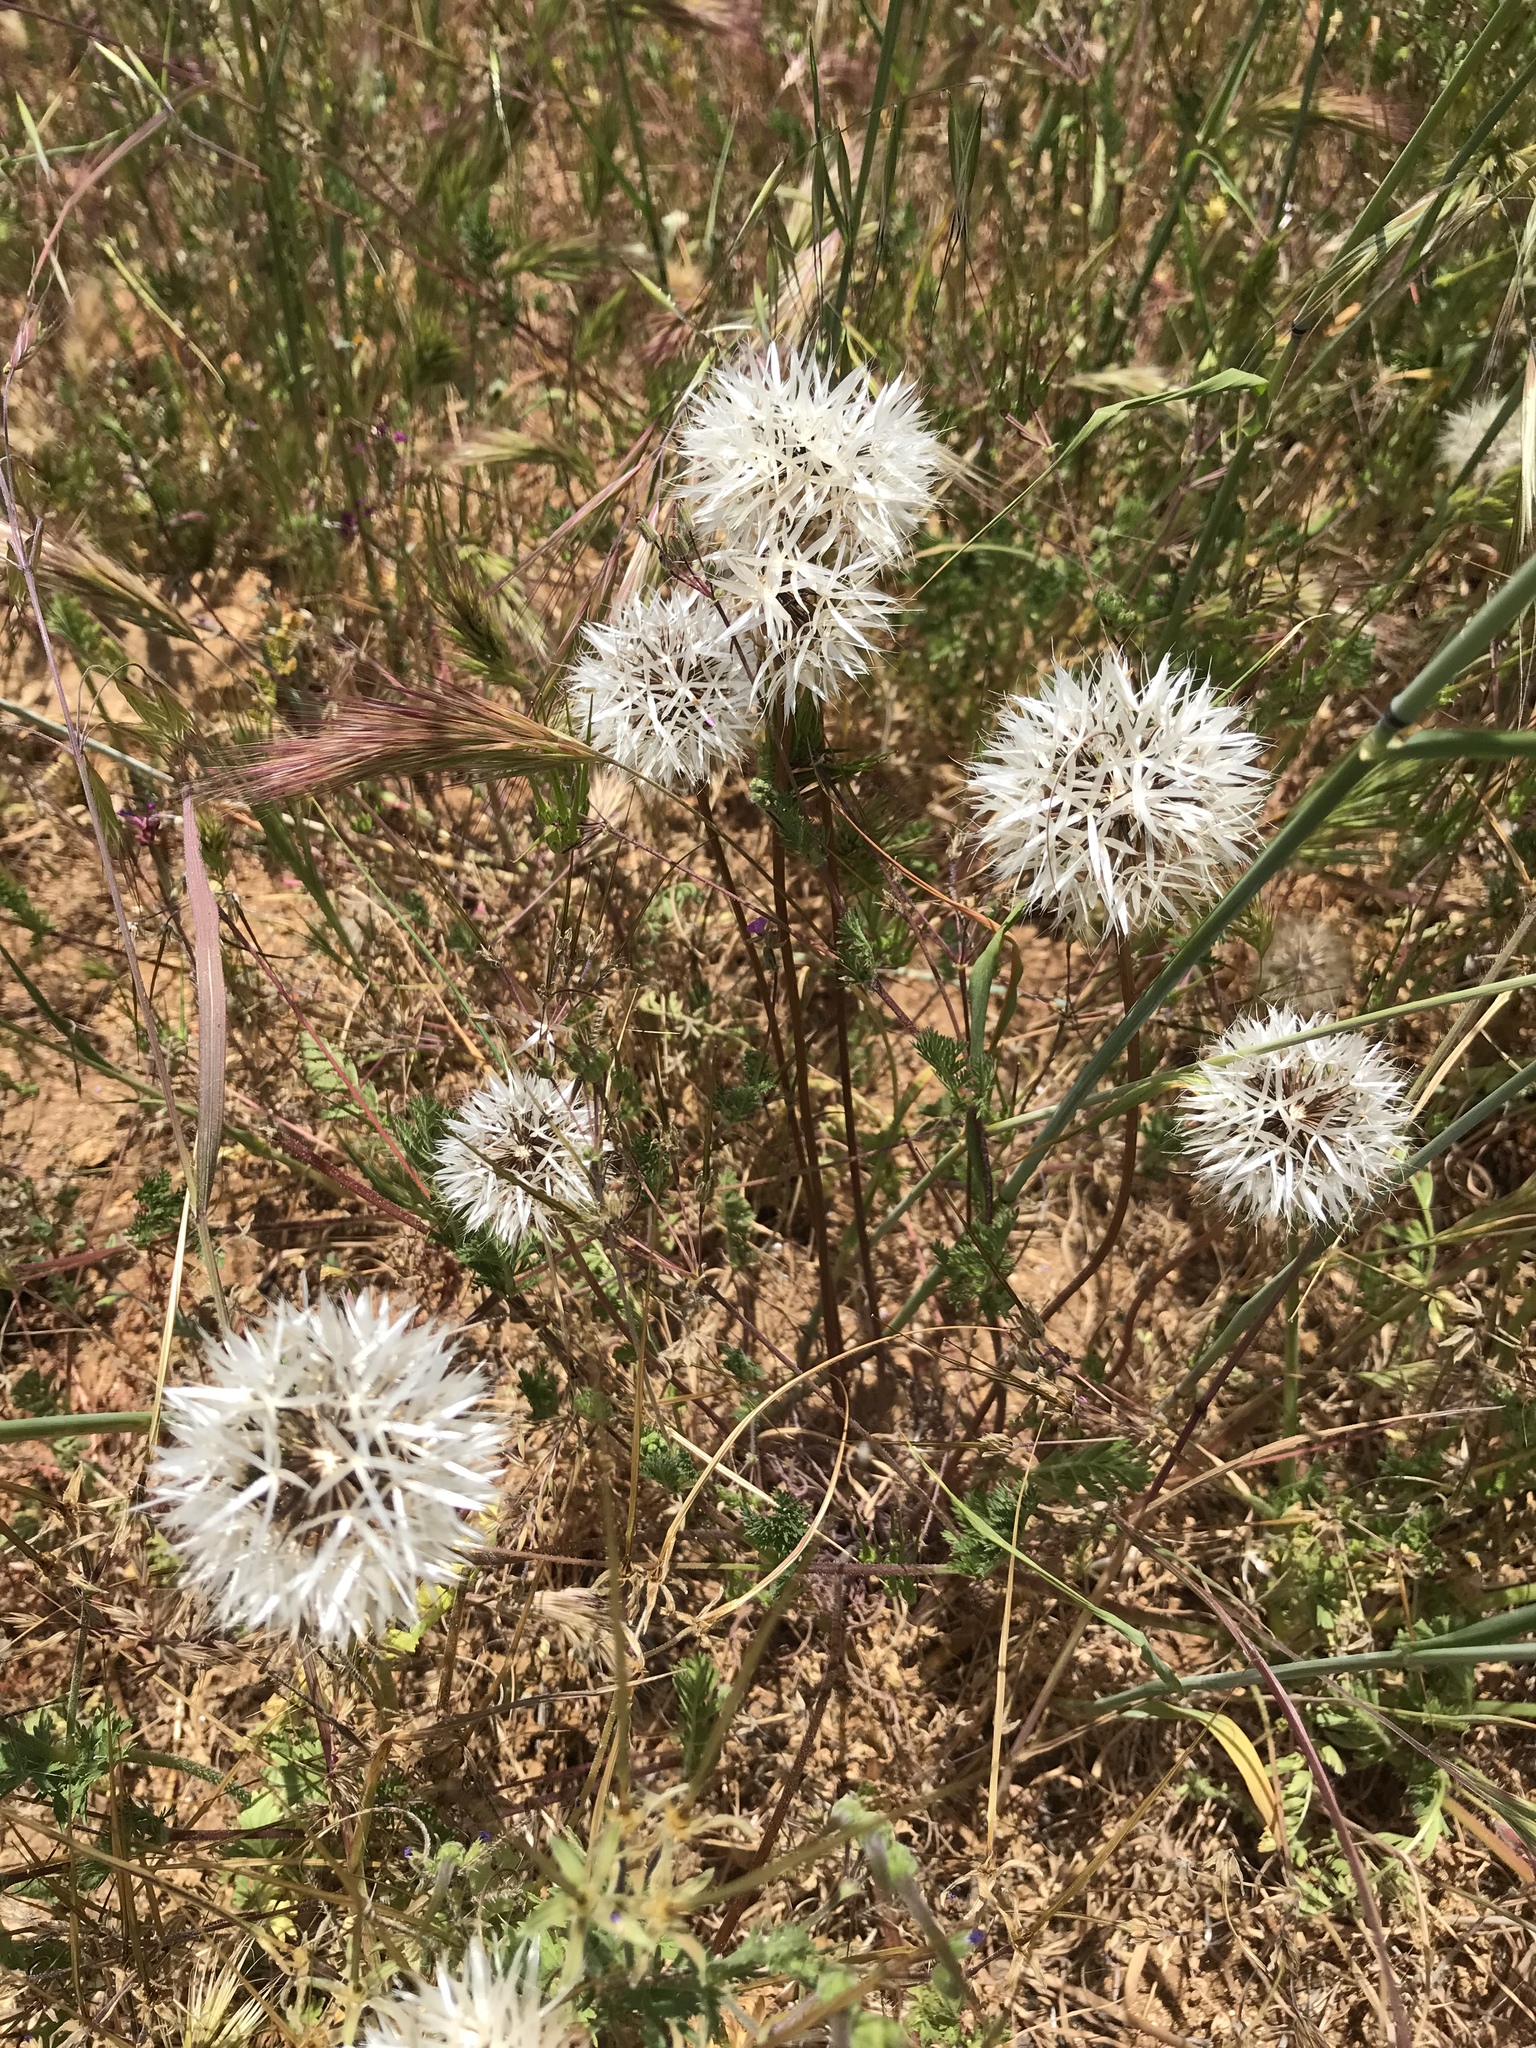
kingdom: Plantae
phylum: Tracheophyta
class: Magnoliopsida
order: Asterales
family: Asteraceae
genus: Microseris
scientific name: Microseris lindleyi
